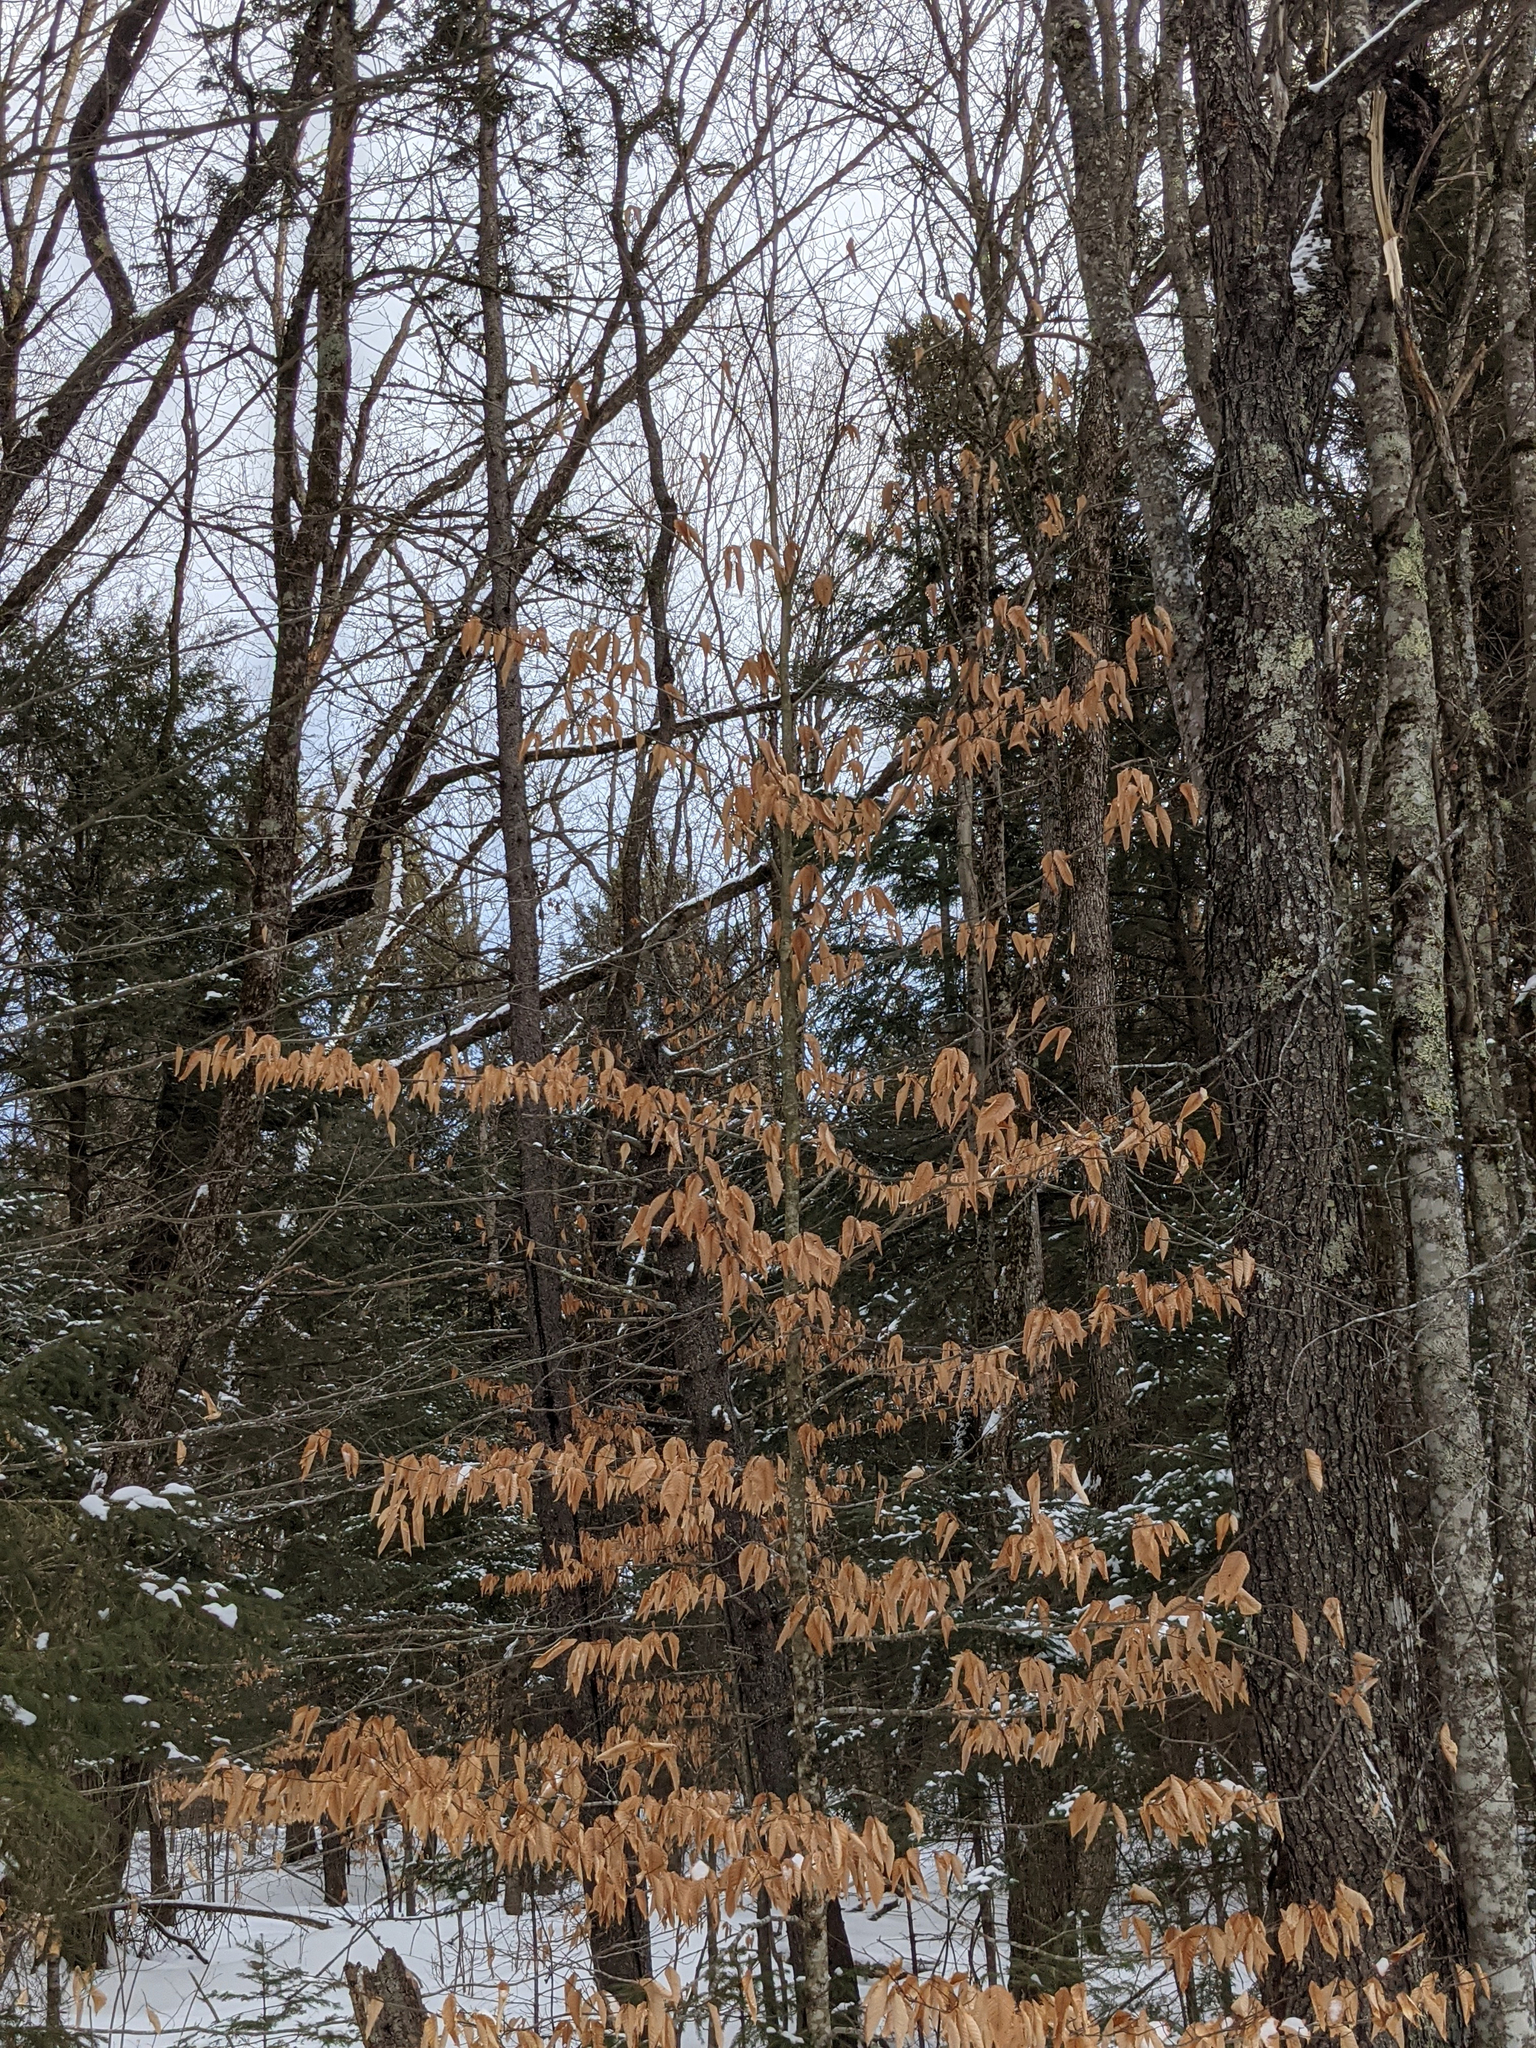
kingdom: Plantae
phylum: Tracheophyta
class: Magnoliopsida
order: Fagales
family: Fagaceae
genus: Fagus
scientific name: Fagus grandifolia
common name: American beech
